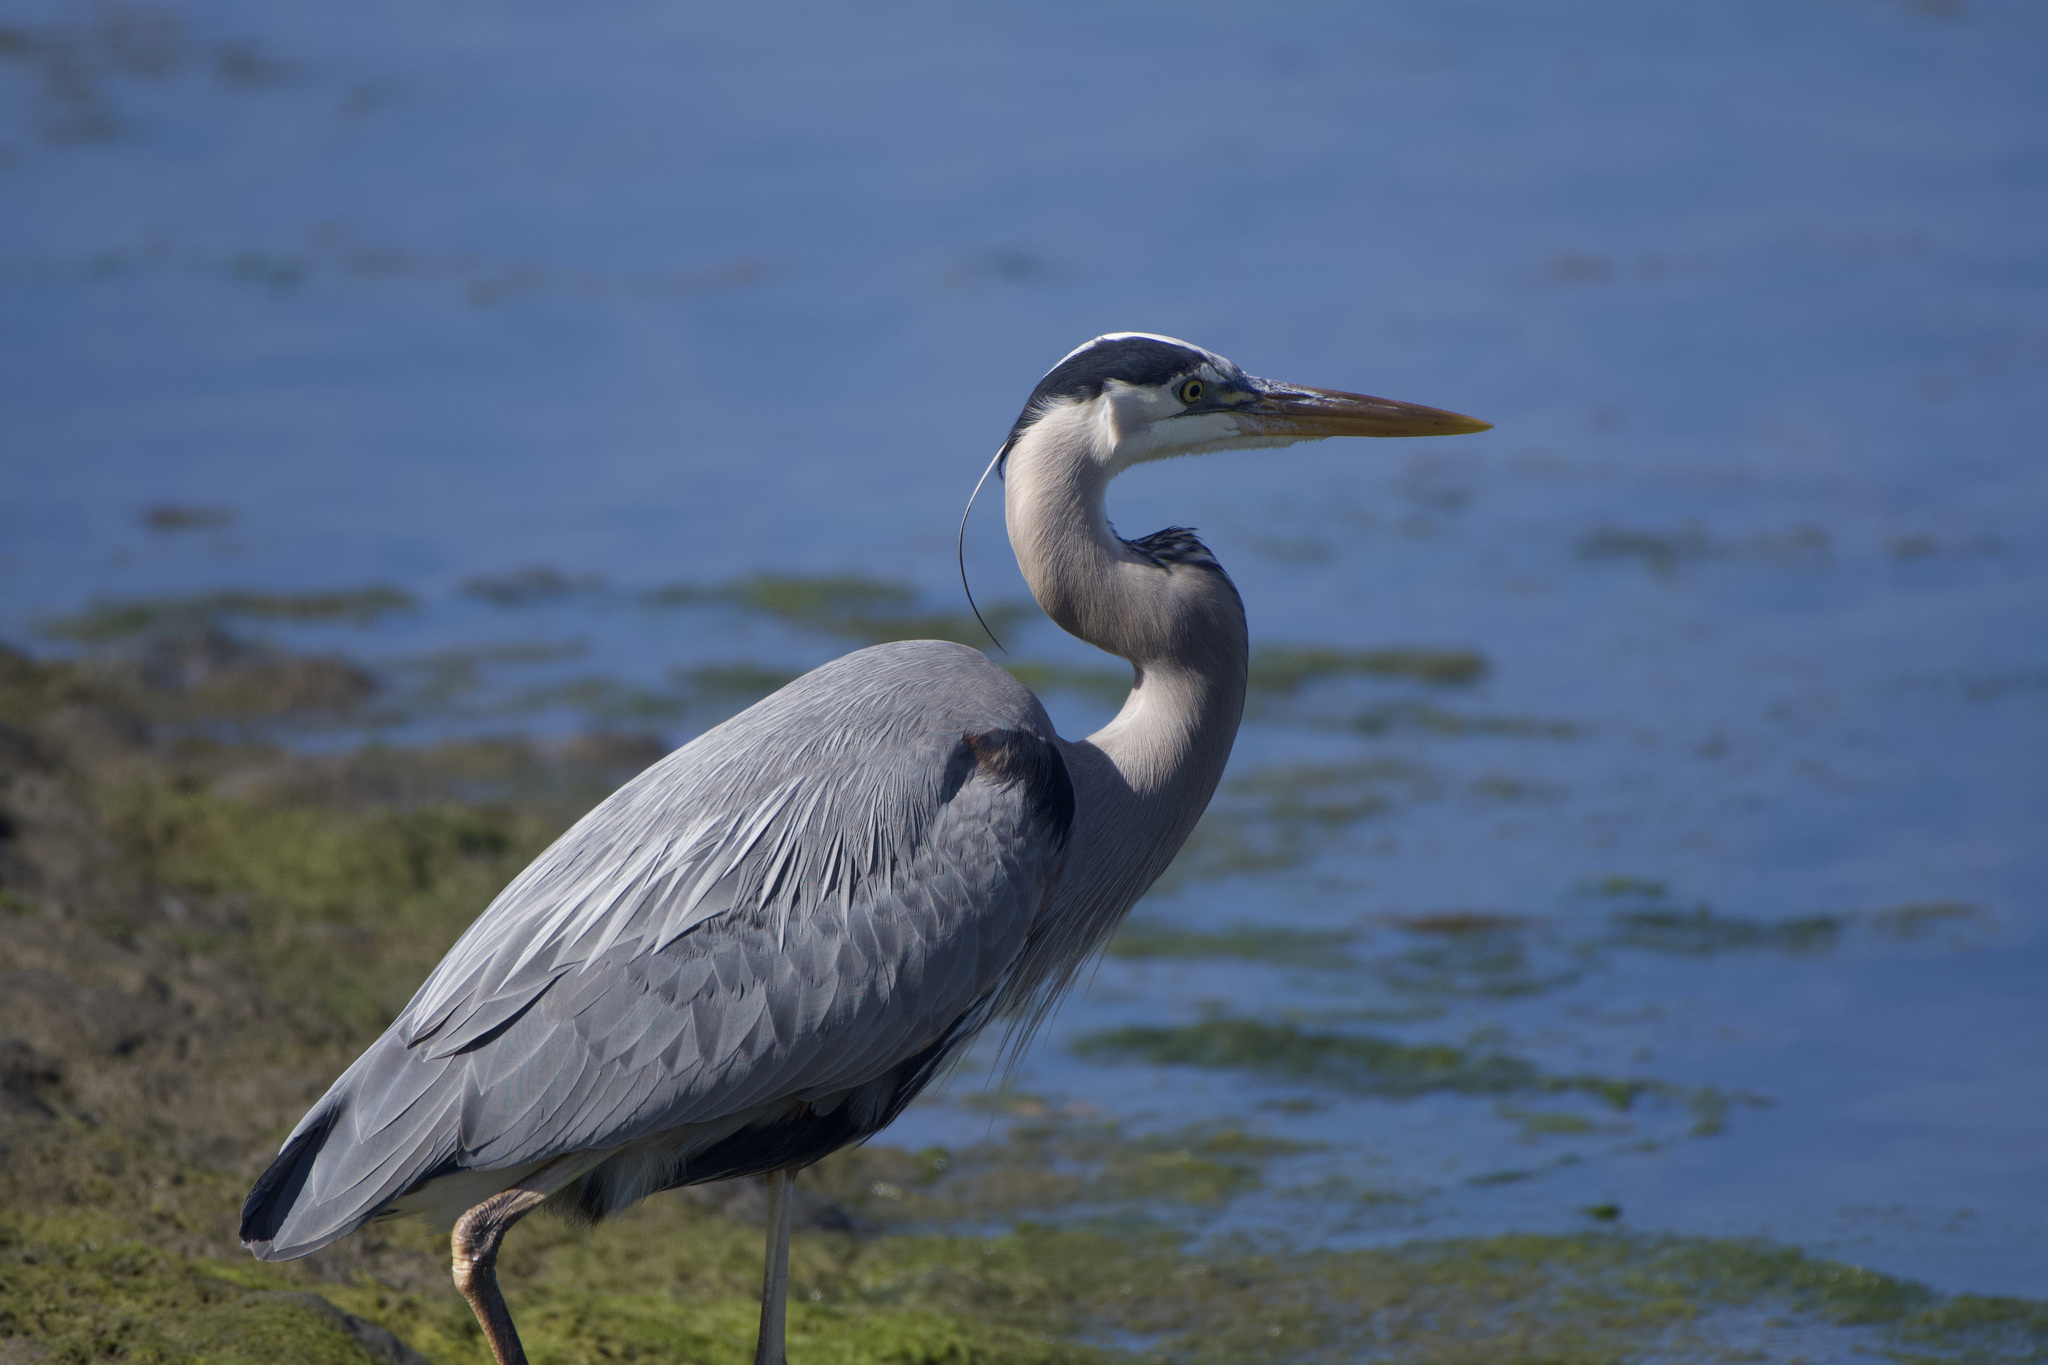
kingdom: Animalia
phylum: Chordata
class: Aves
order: Pelecaniformes
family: Ardeidae
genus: Ardea
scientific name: Ardea herodias
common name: Great blue heron
